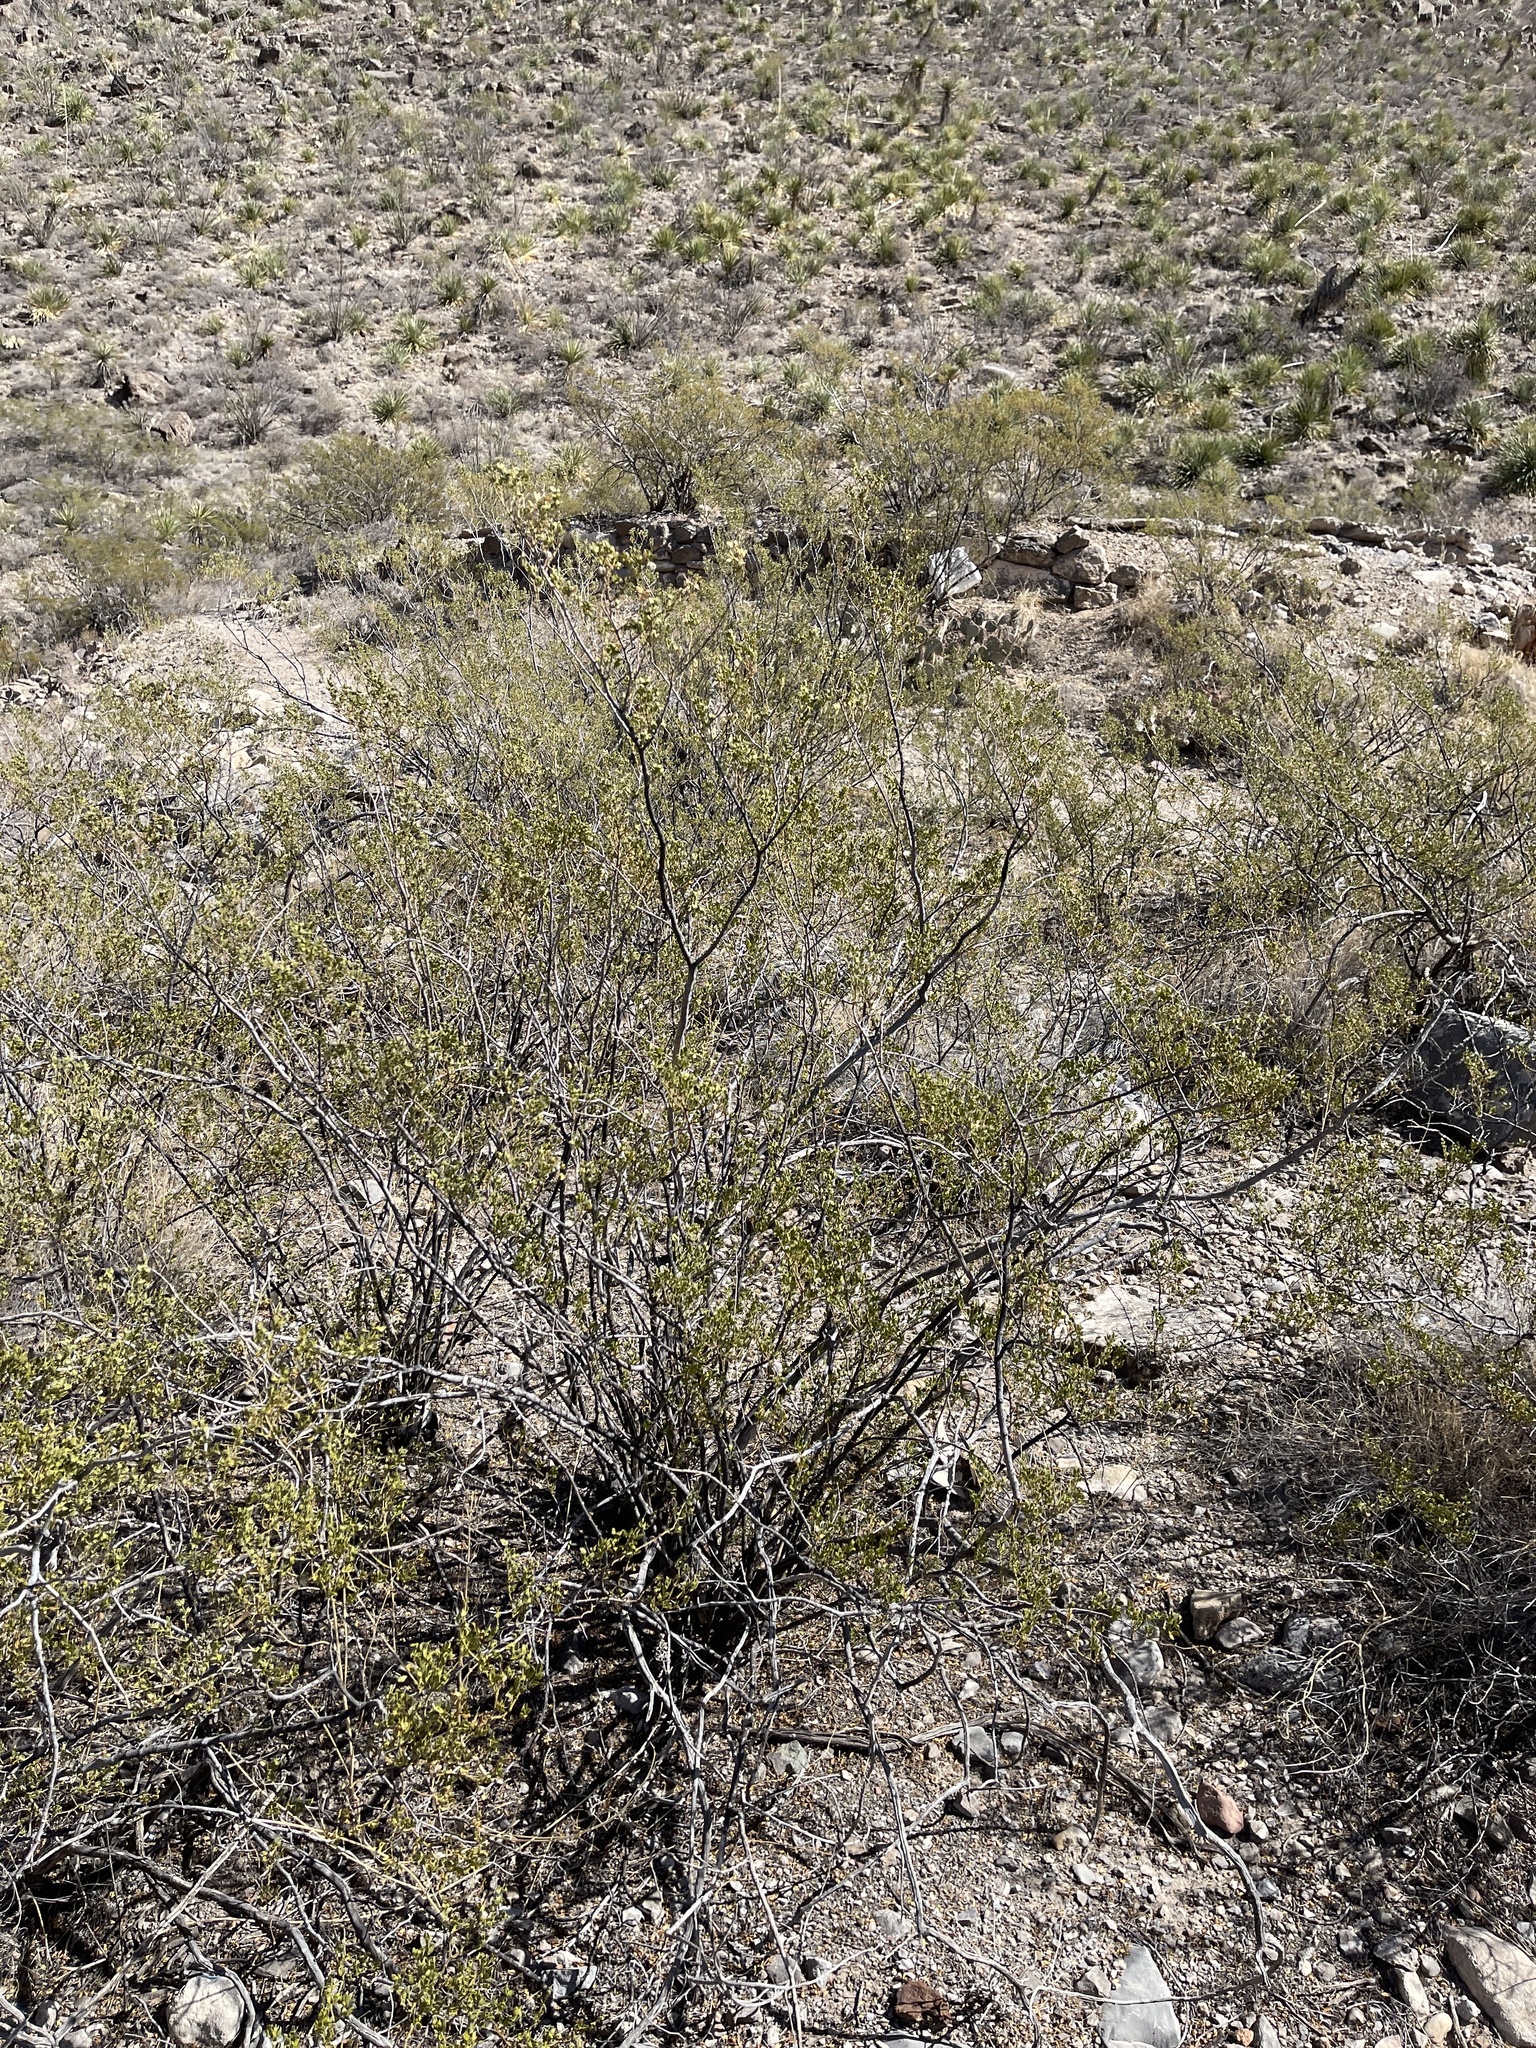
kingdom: Plantae
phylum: Tracheophyta
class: Magnoliopsida
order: Zygophyllales
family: Zygophyllaceae
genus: Larrea
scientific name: Larrea tridentata
